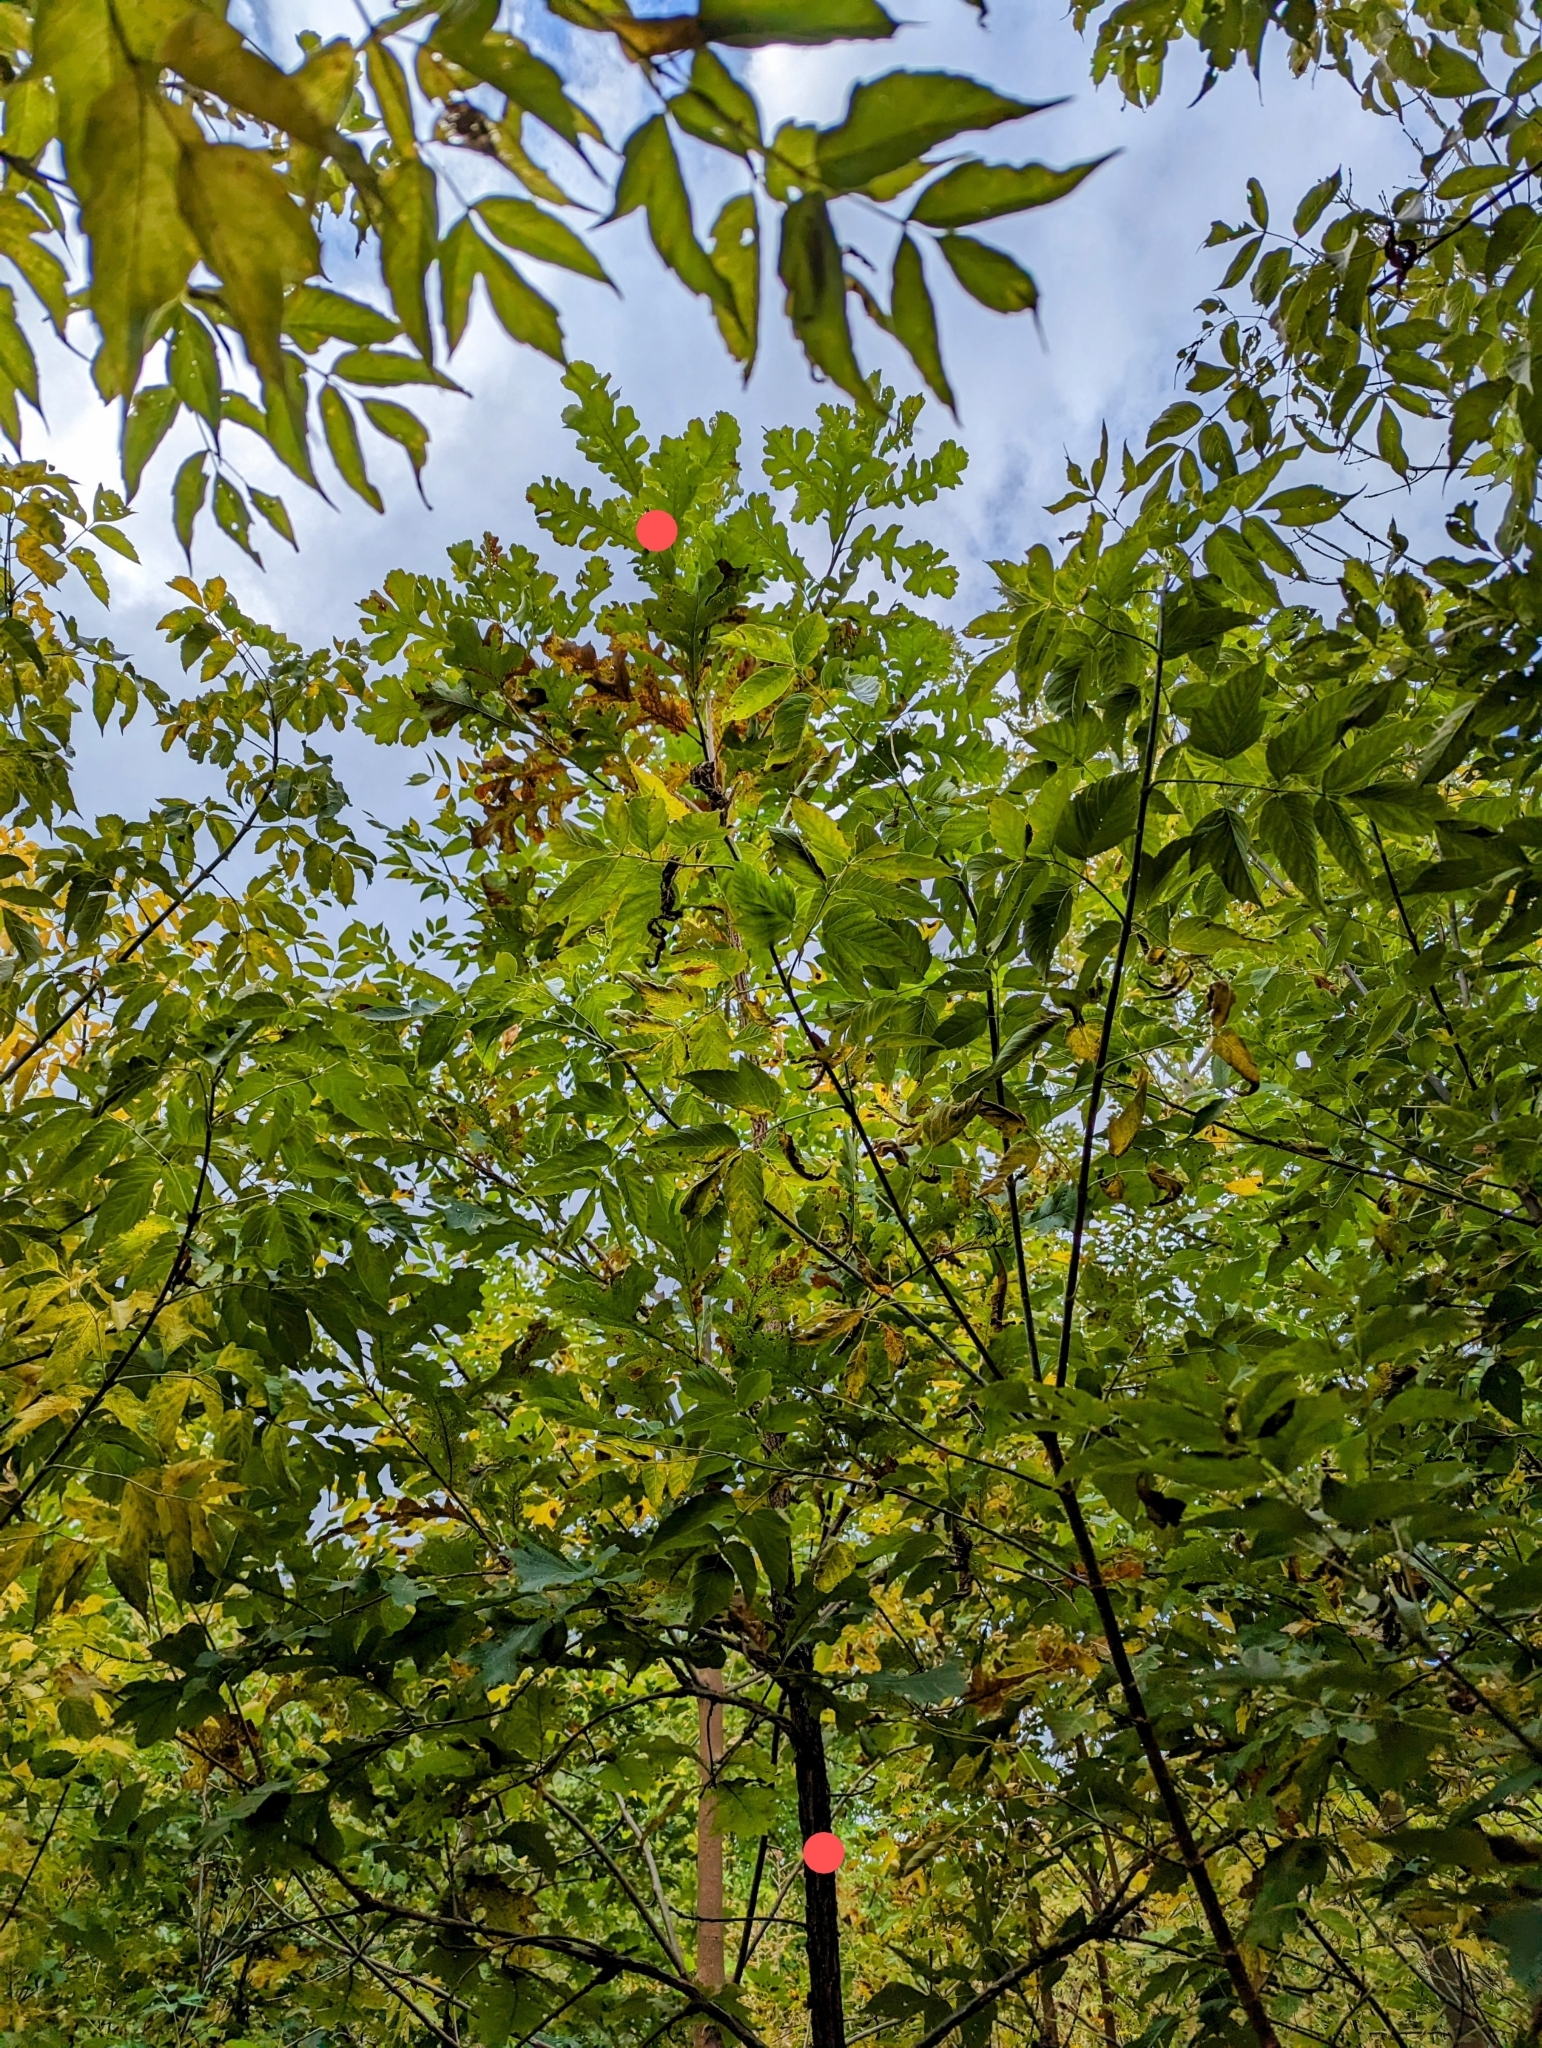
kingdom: Plantae
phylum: Tracheophyta
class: Magnoliopsida
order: Fagales
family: Fagaceae
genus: Quercus
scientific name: Quercus macrocarpa
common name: Bur oak
